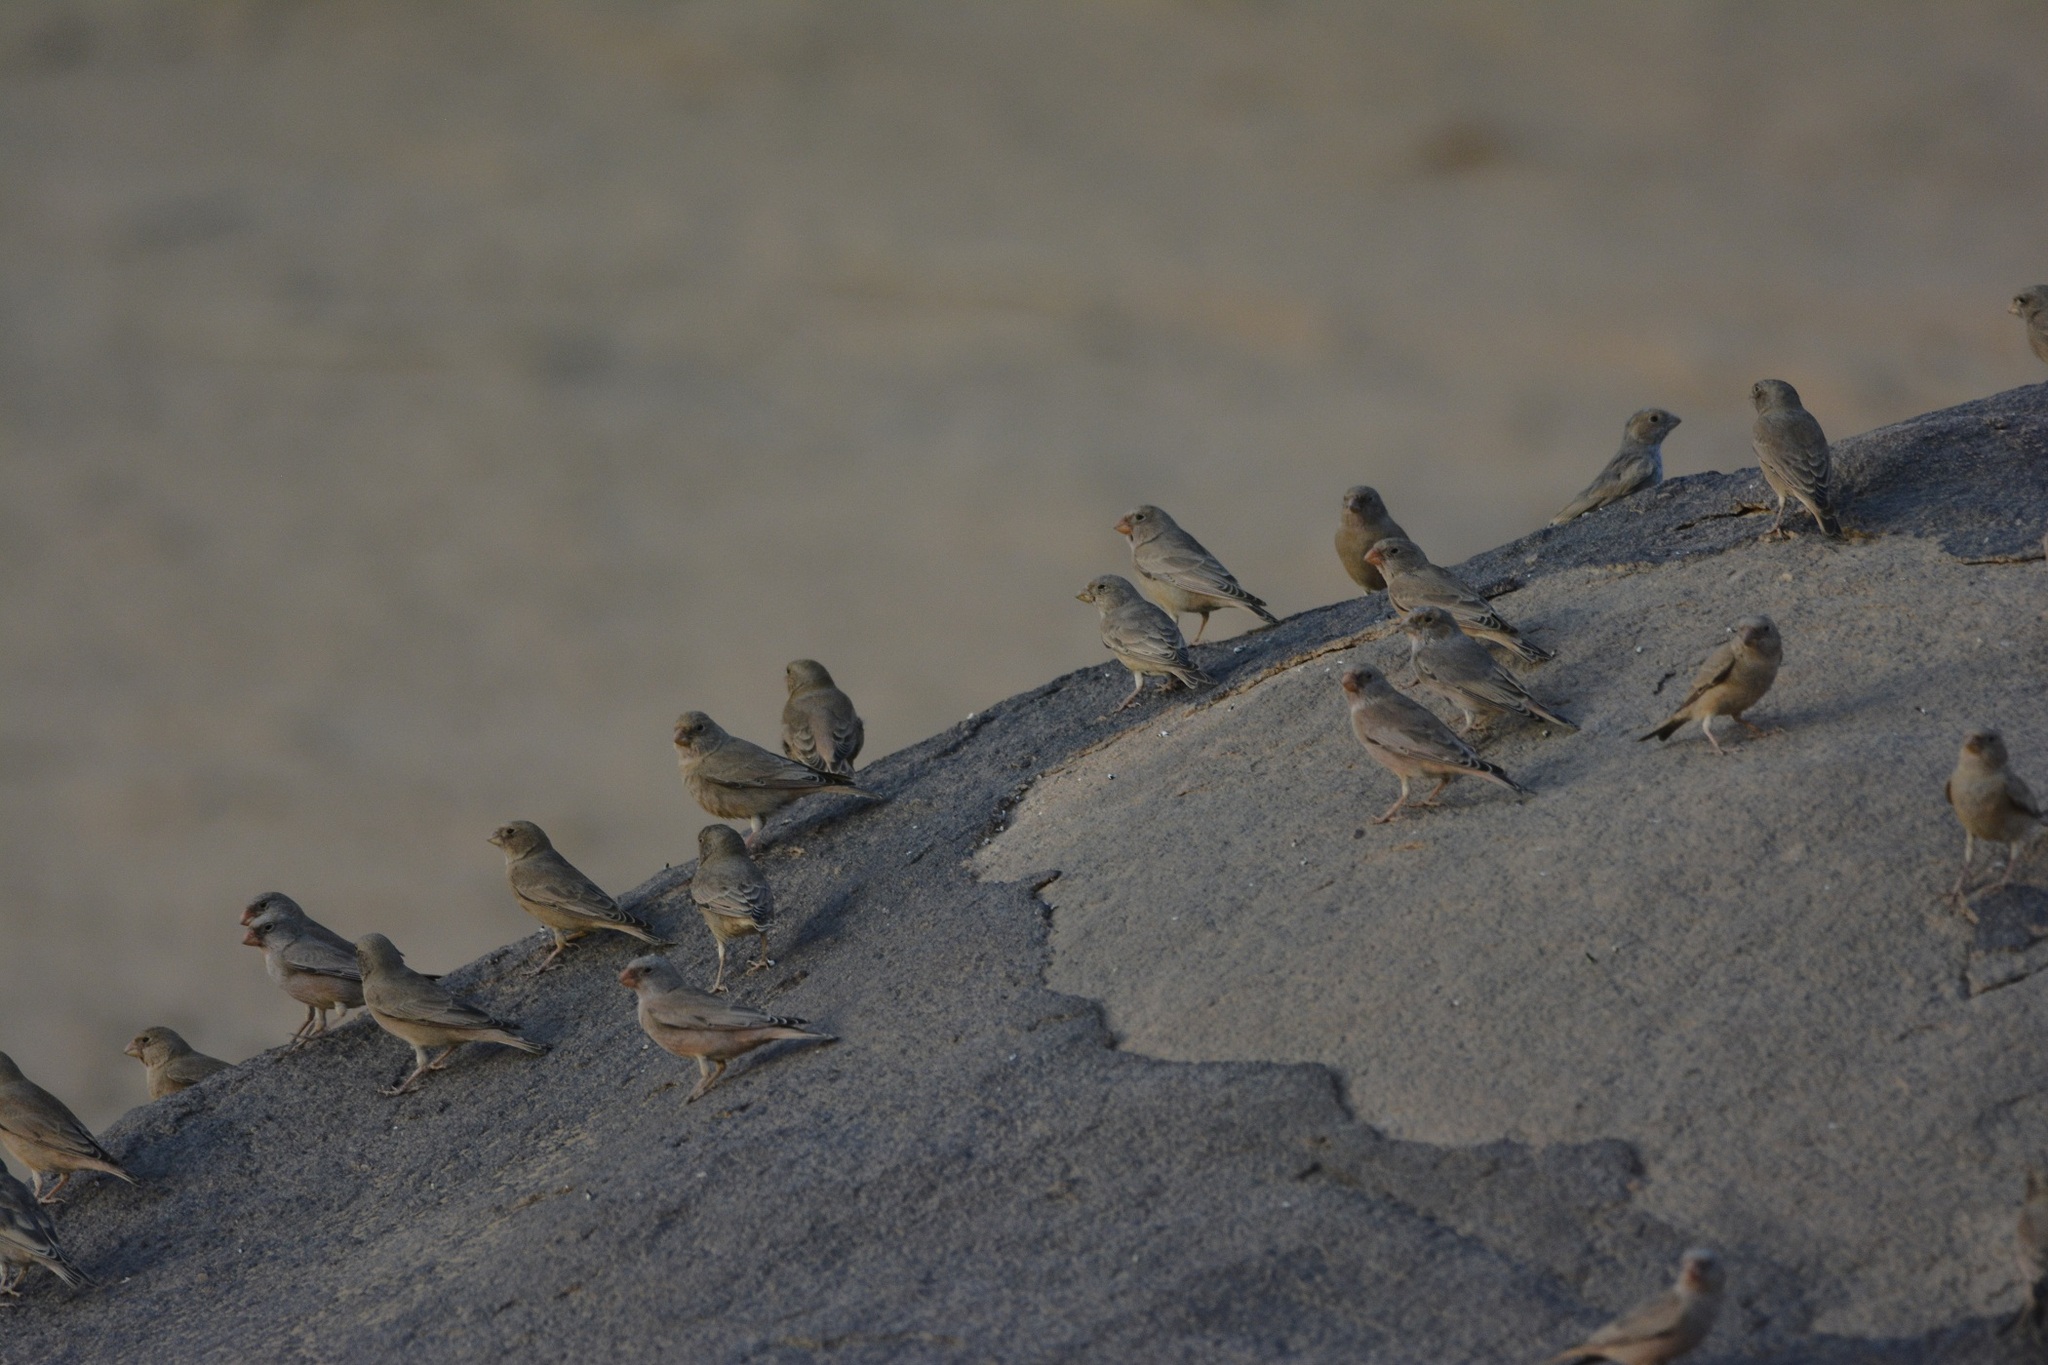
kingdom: Animalia
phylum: Chordata
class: Aves
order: Passeriformes
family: Fringillidae
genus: Bucanetes
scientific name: Bucanetes githagineus
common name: Trumpeter finch
